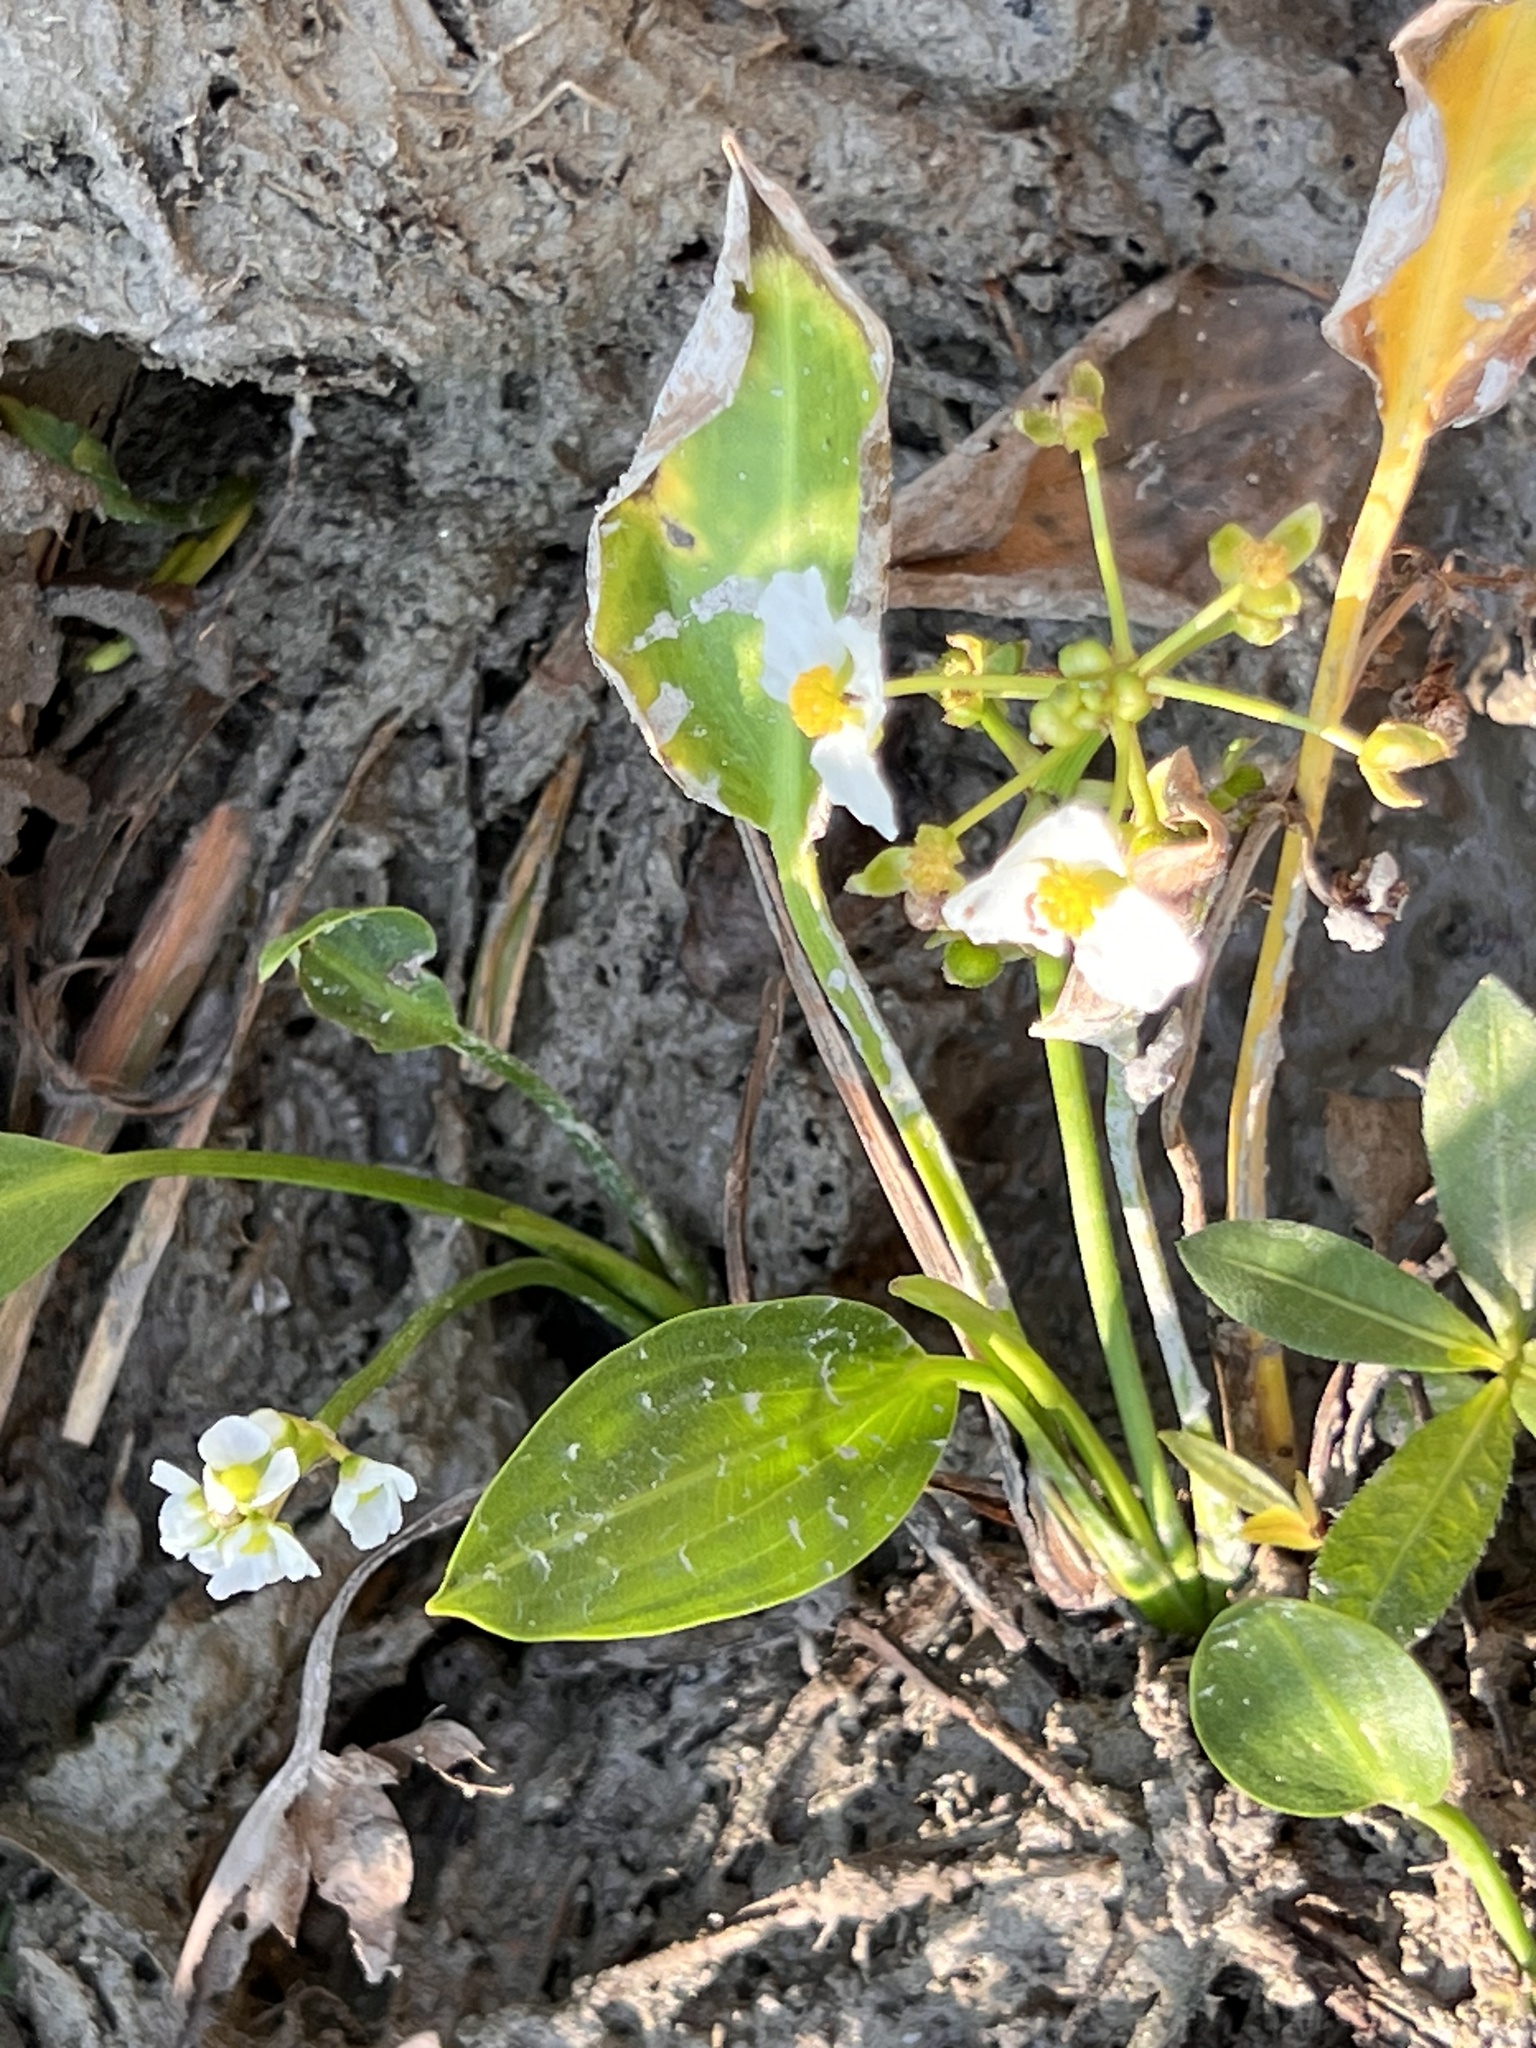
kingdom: Plantae
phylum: Tracheophyta
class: Liliopsida
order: Alismatales
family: Alismataceae
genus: Sagittaria
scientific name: Sagittaria platyphylla
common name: Broad-leaf arrowhead
